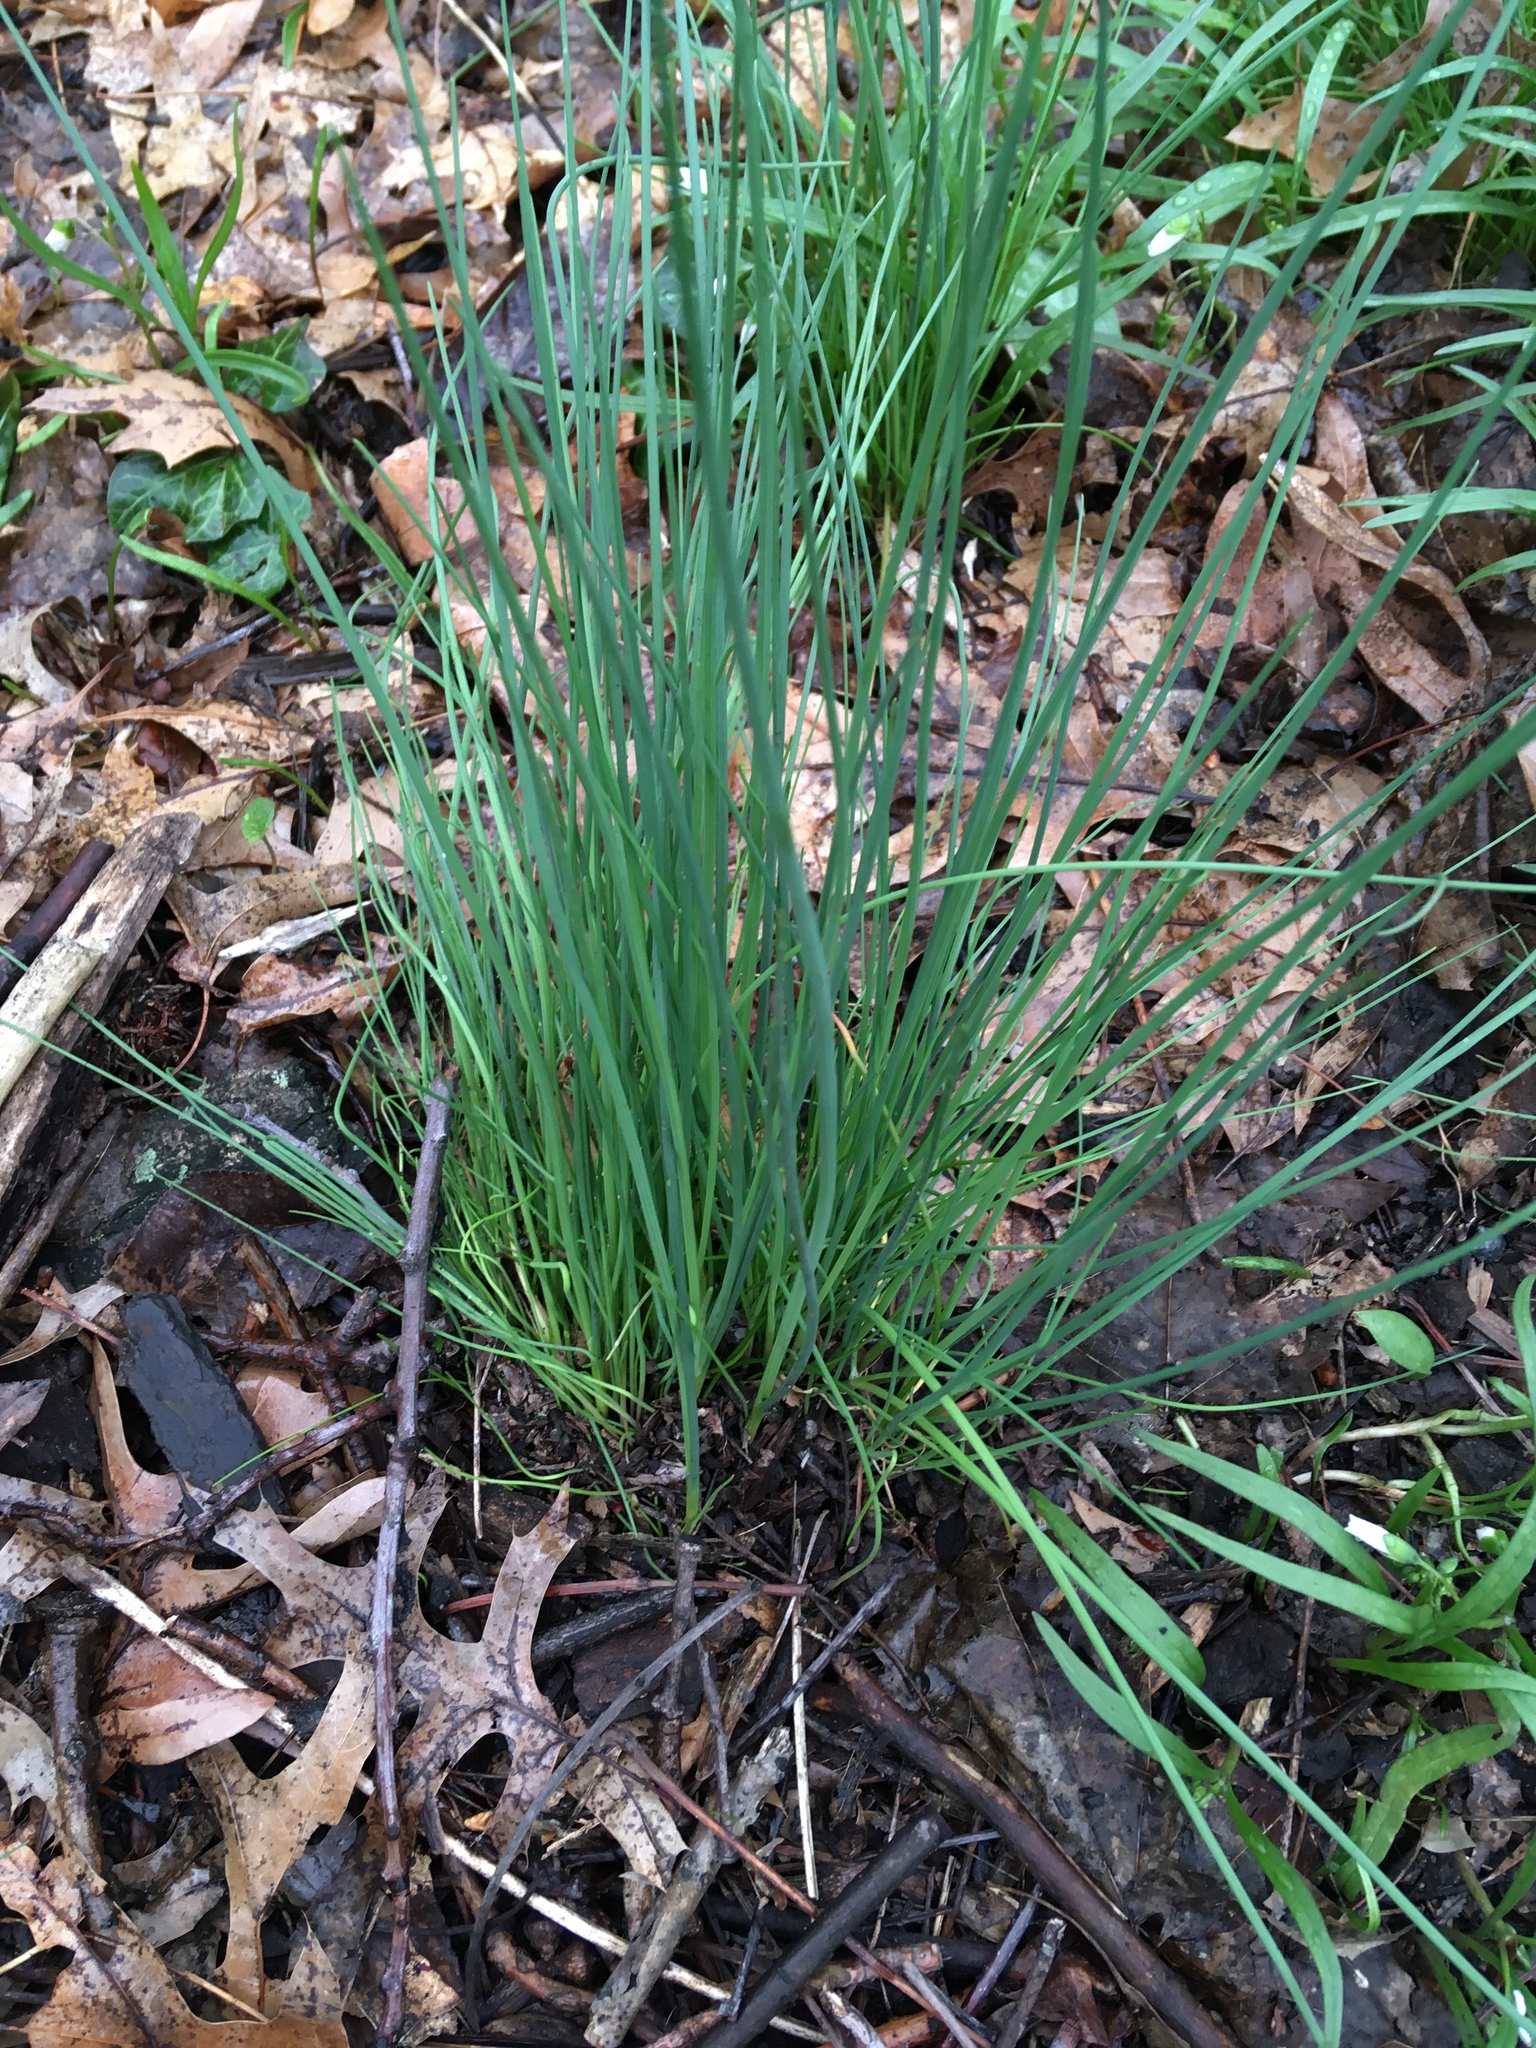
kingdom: Plantae
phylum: Tracheophyta
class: Liliopsida
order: Asparagales
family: Amaryllidaceae
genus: Allium
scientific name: Allium vineale
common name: Crow garlic
